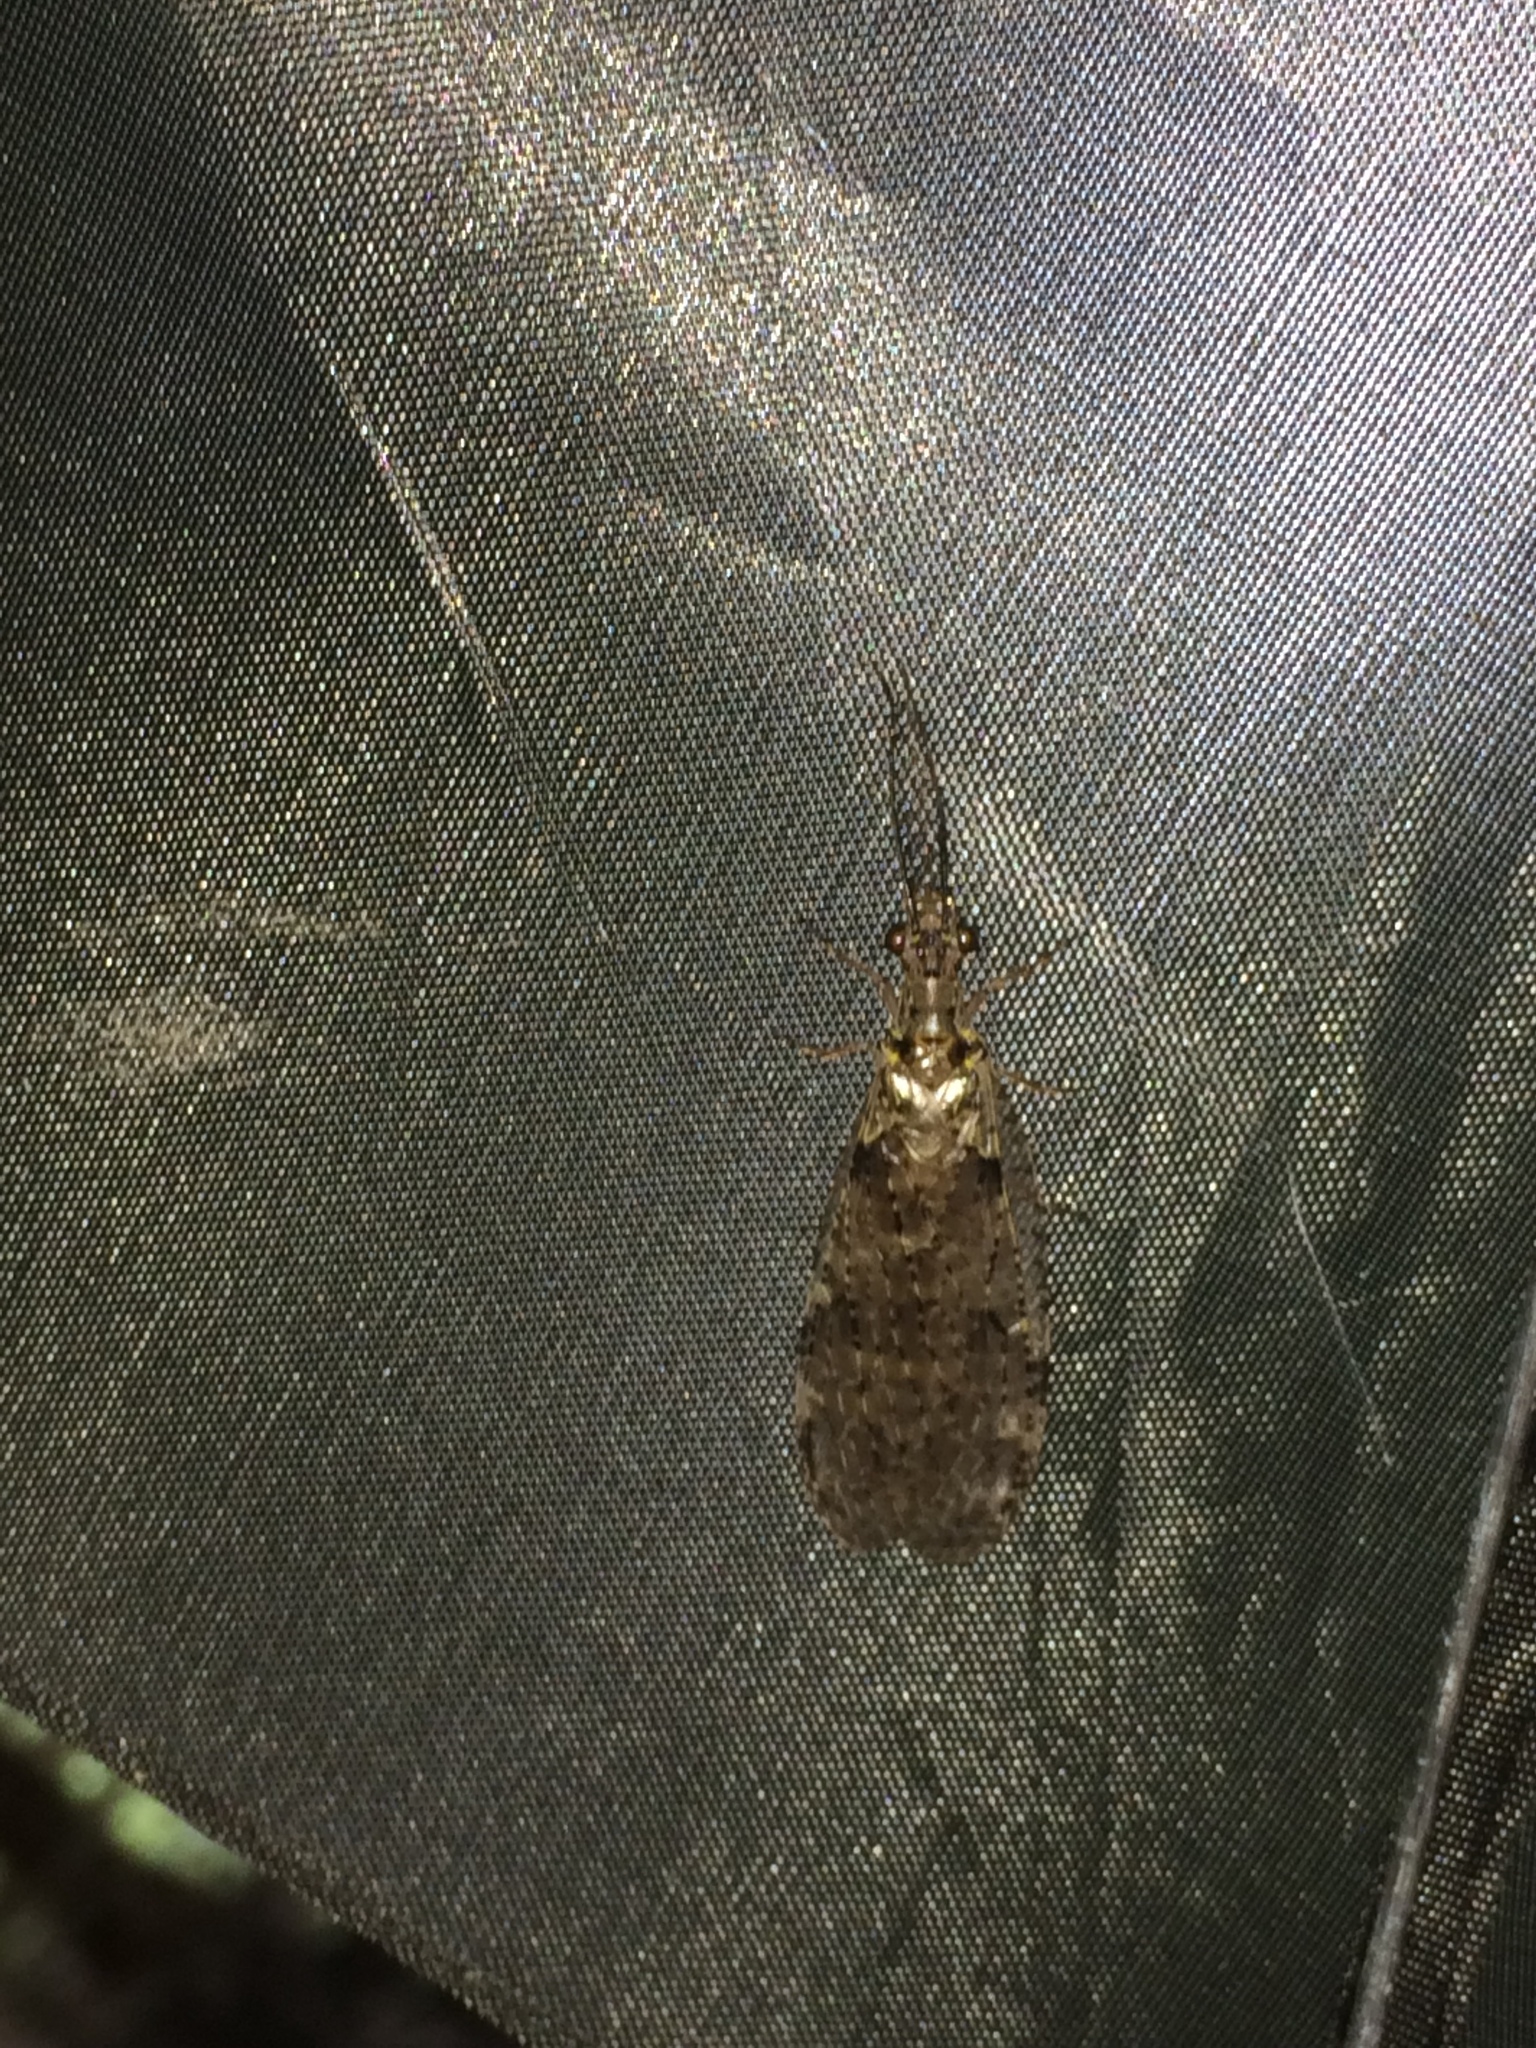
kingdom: Animalia
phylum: Arthropoda
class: Insecta
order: Megaloptera
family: Corydalidae
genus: Chauliodes
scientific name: Chauliodes rastricornis
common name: Spring fishfly
